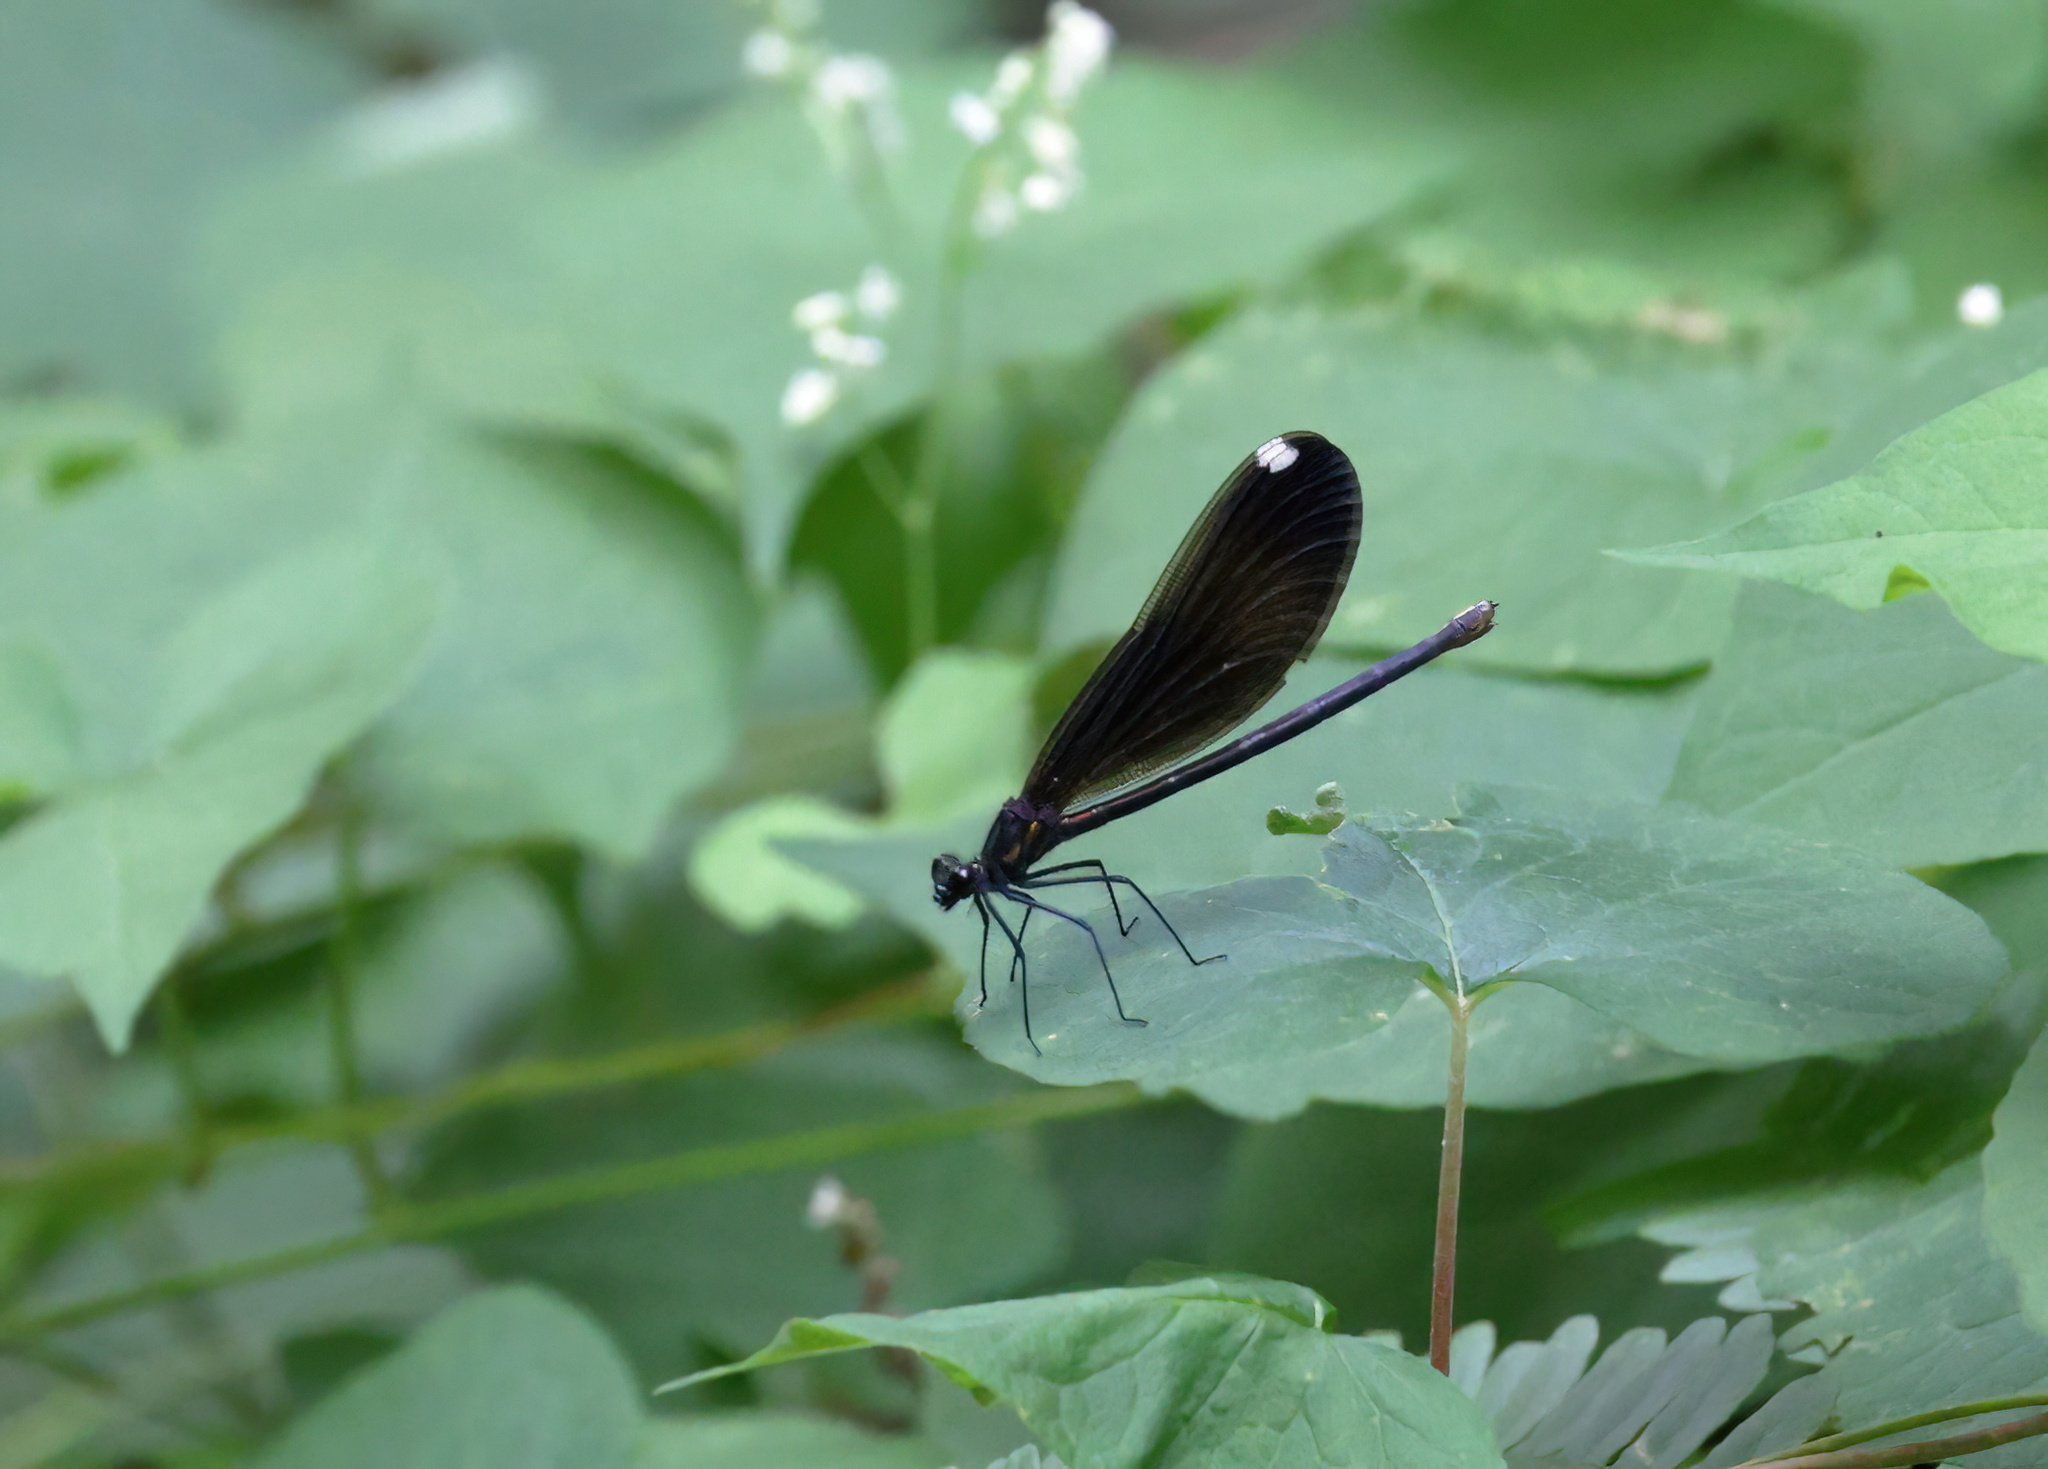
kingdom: Animalia
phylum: Arthropoda
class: Insecta
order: Odonata
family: Calopterygidae
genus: Calopteryx
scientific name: Calopteryx maculata
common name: Ebony jewelwing
